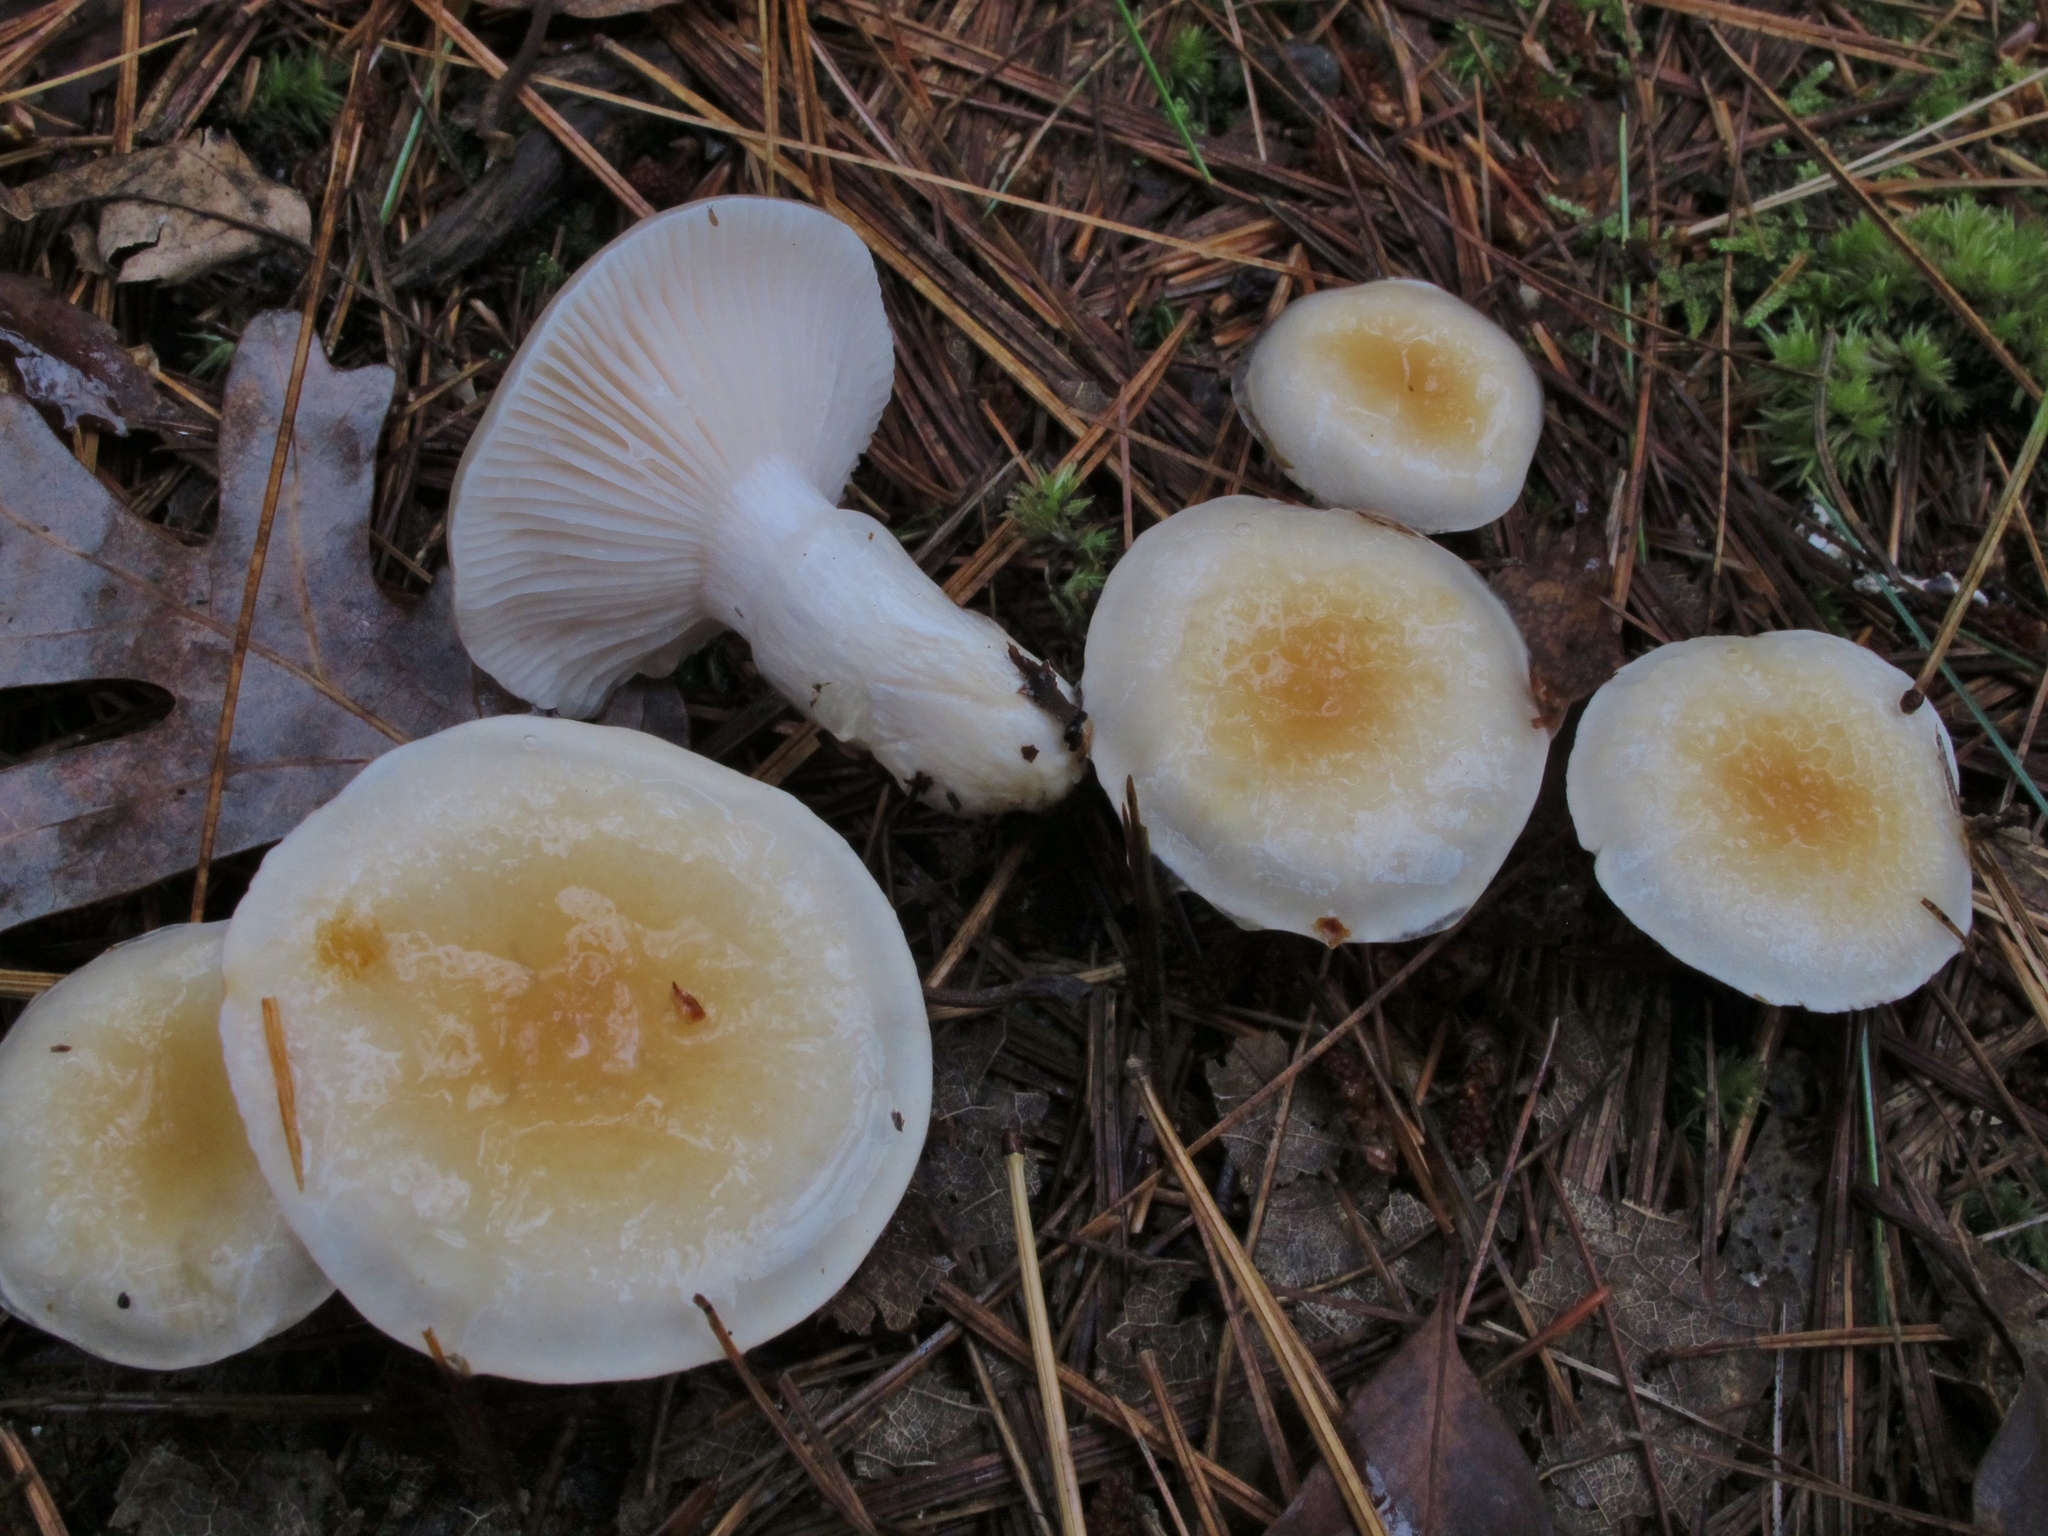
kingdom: Fungi
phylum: Basidiomycota
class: Agaricomycetes
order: Agaricales
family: Hygrophoraceae
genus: Hygrophorus
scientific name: Hygrophorus ligatus
